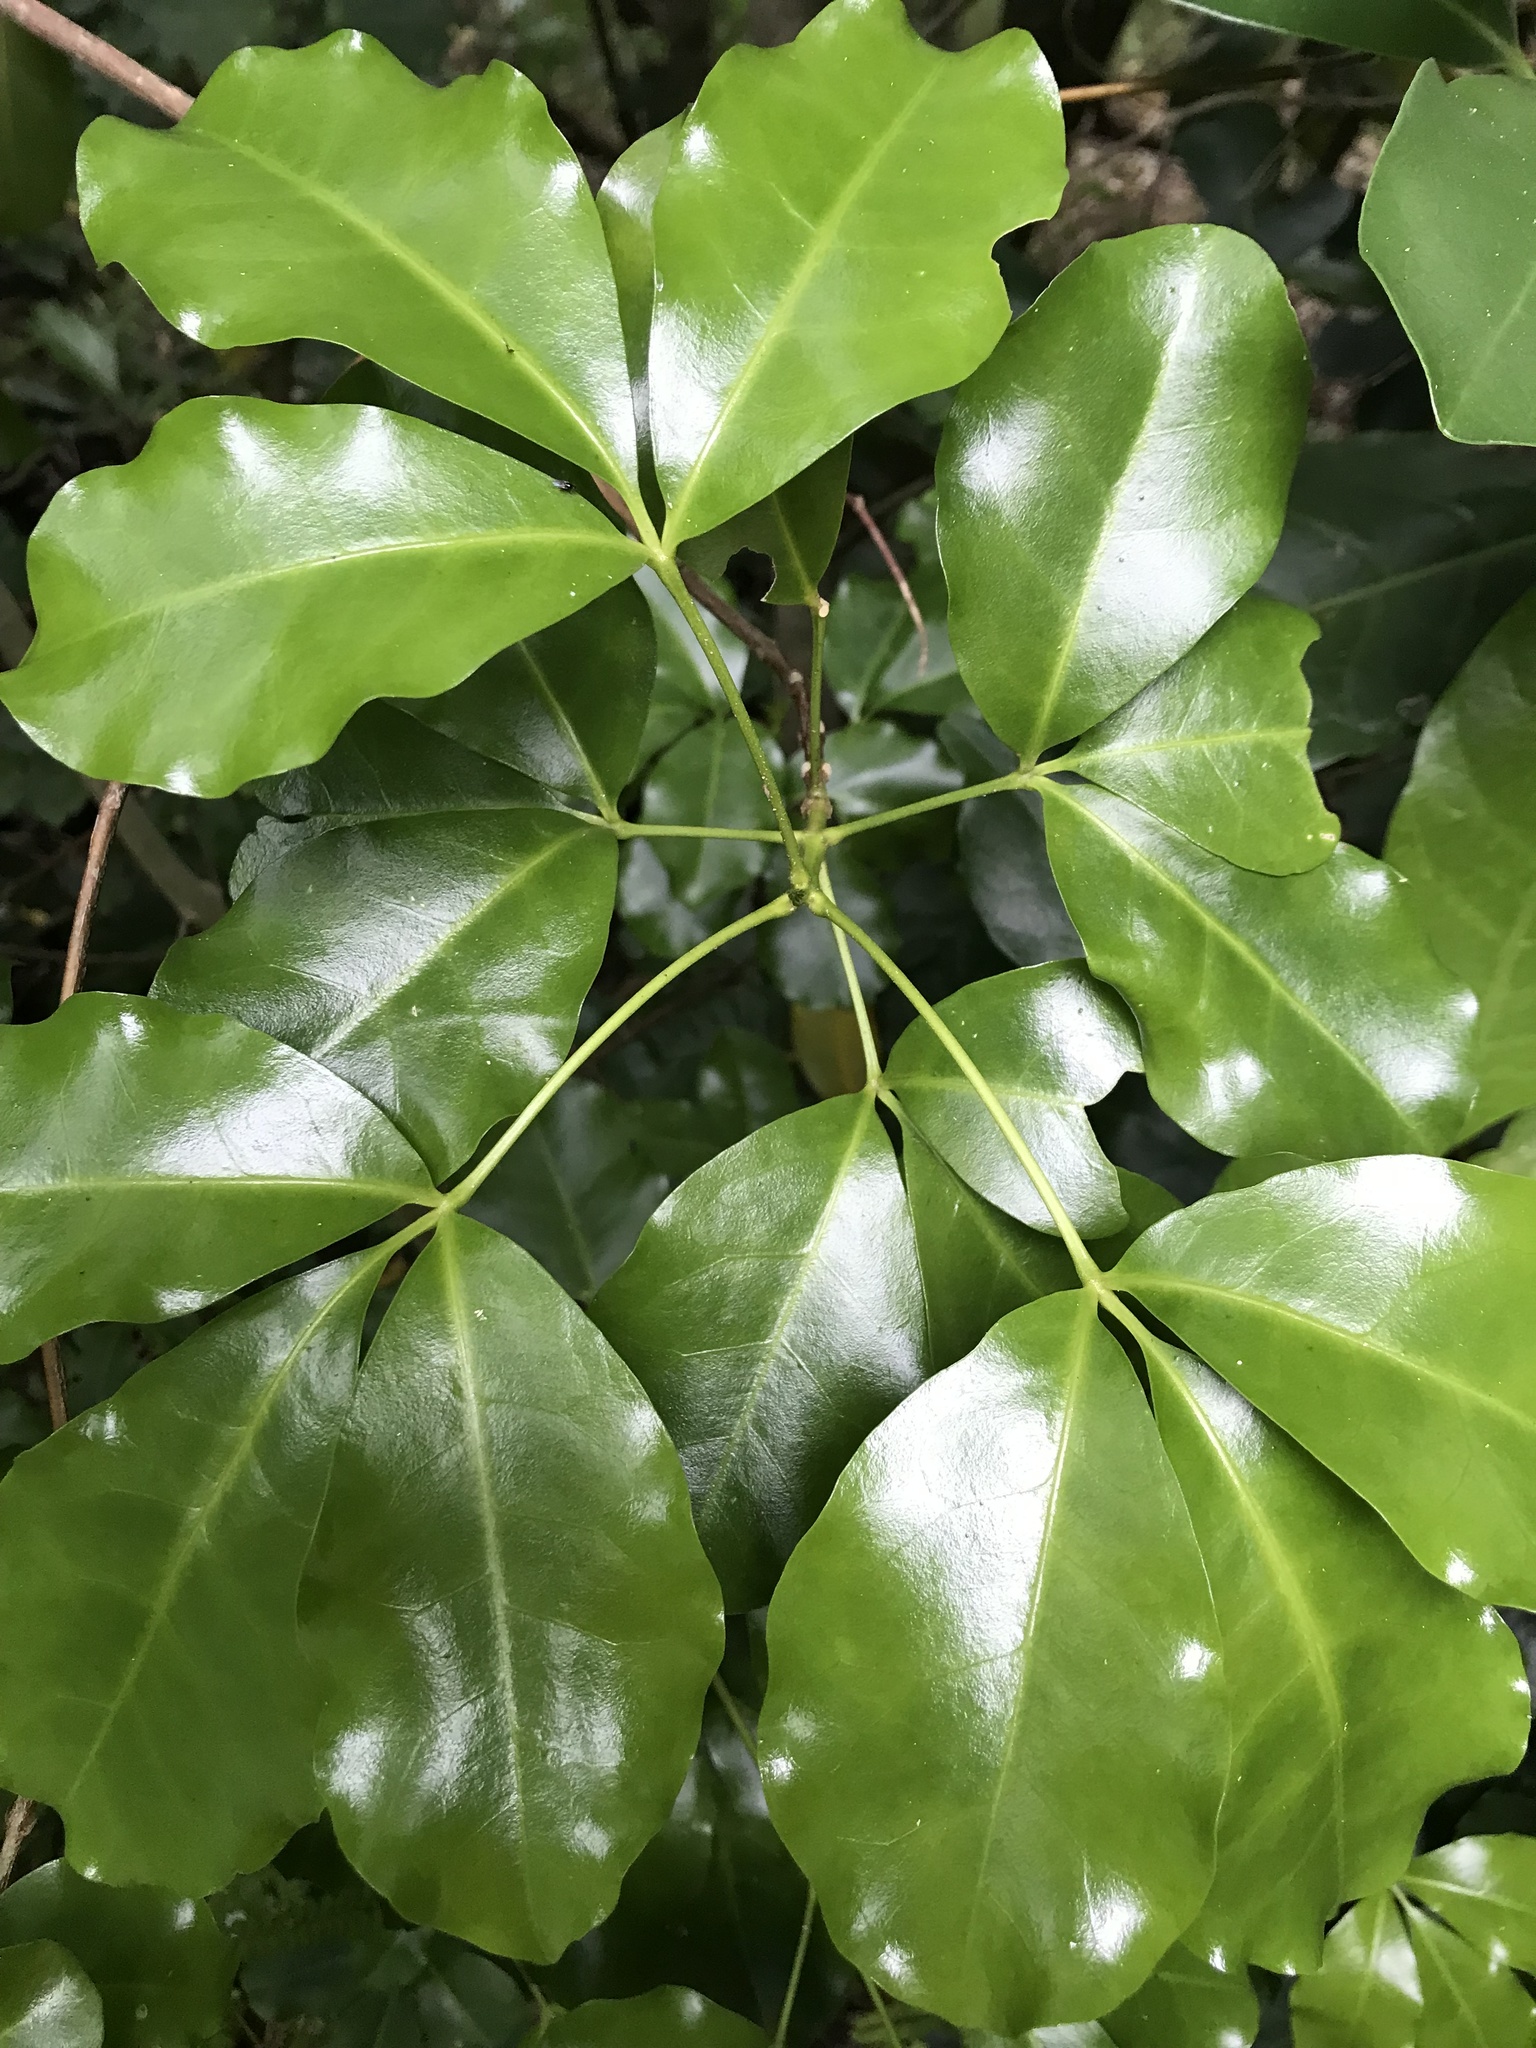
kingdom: Plantae
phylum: Tracheophyta
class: Magnoliopsida
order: Sapindales
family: Rutaceae
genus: Melicope
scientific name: Melicope ternata
